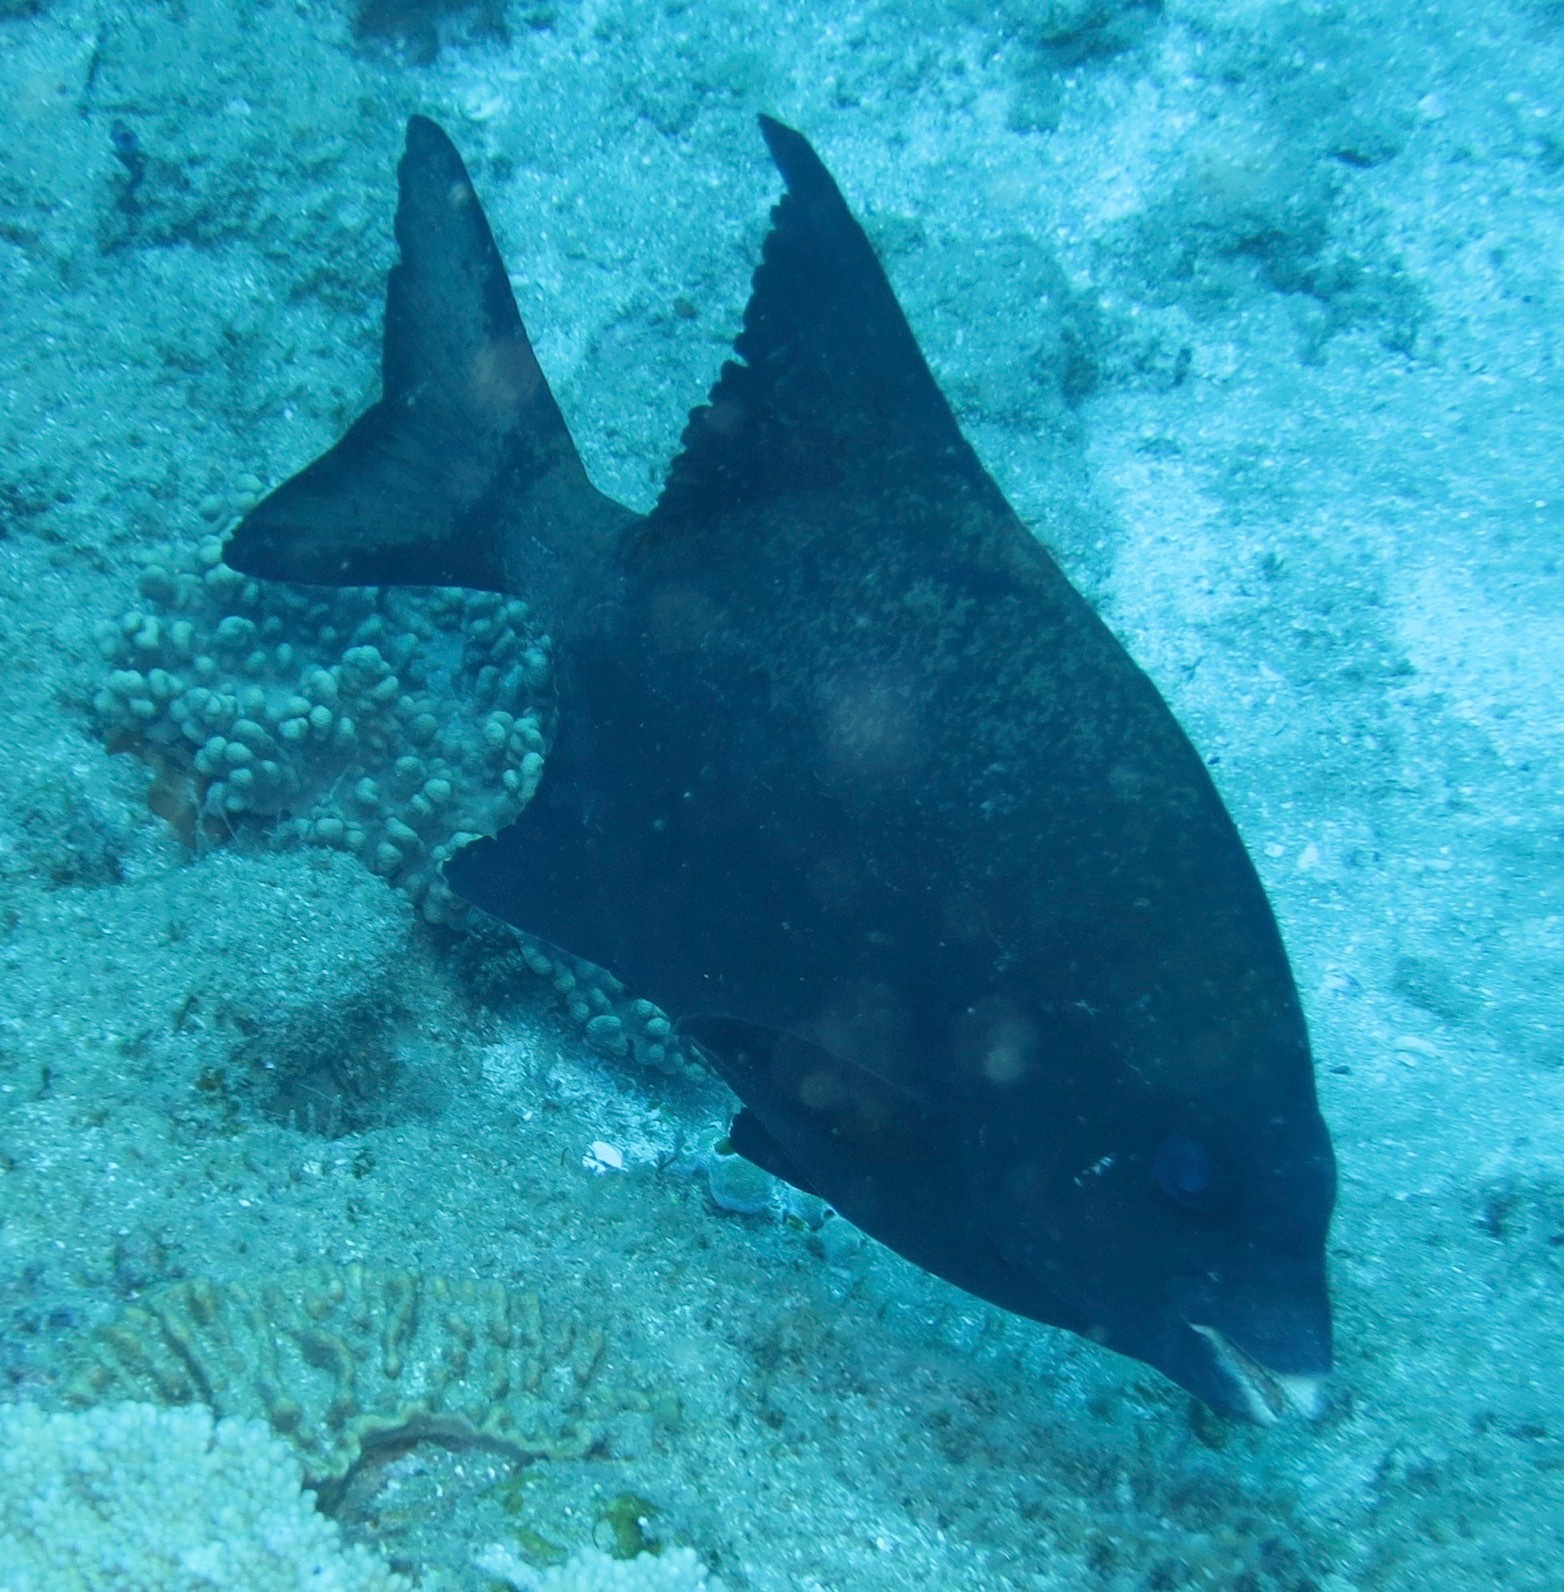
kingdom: Animalia
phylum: Chordata
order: Perciformes
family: Oplegnathidae
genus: Oplegnathus
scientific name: Oplegnathus robinsoni
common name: Natal knifejaw
